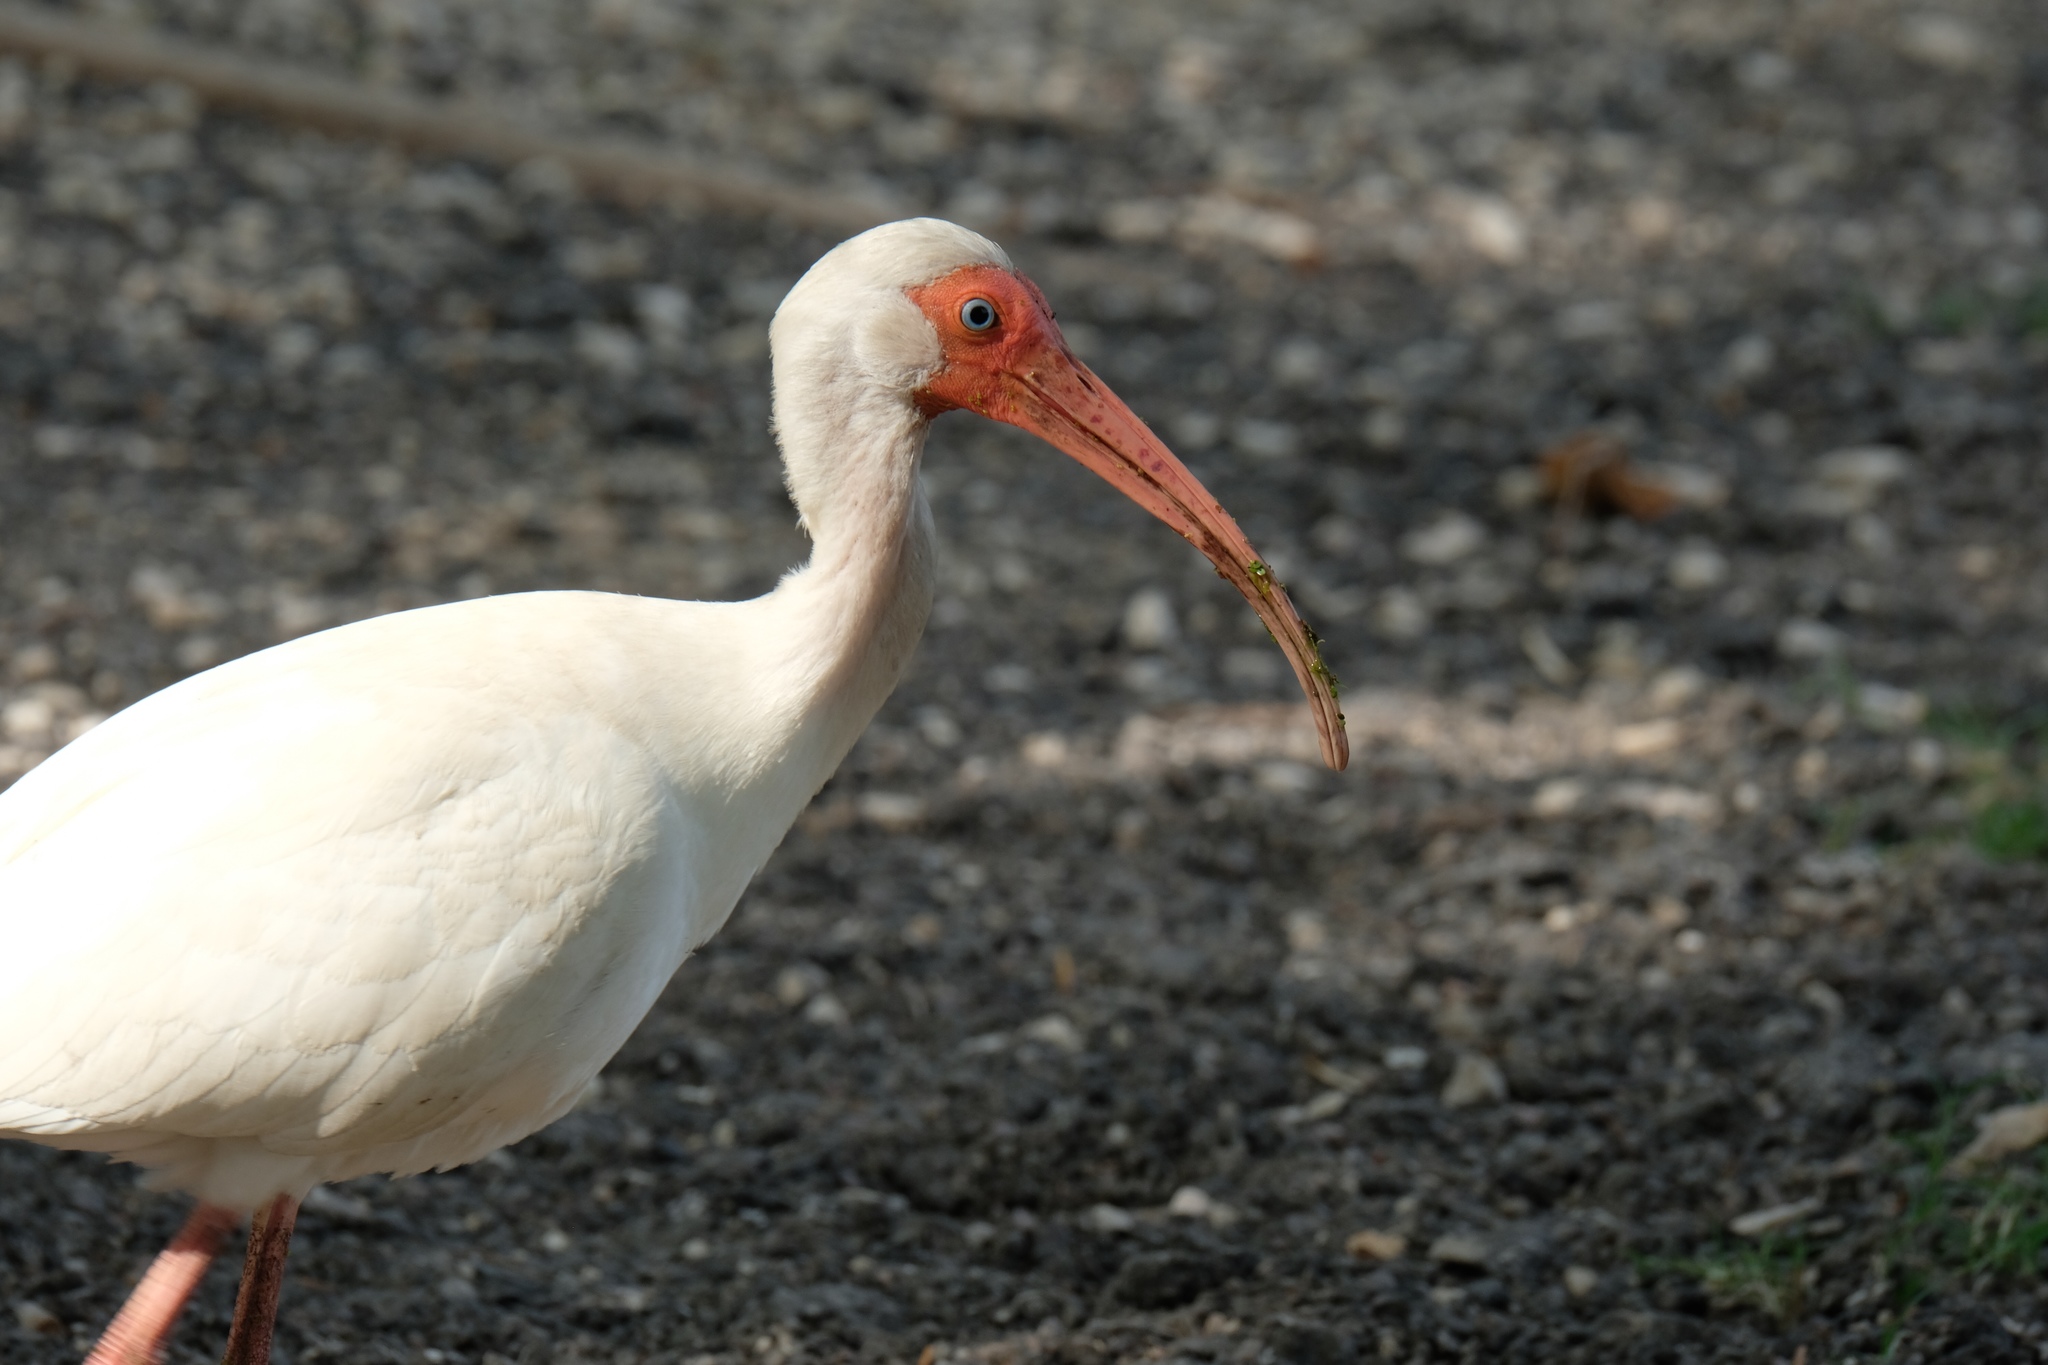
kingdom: Animalia
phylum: Chordata
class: Aves
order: Pelecaniformes
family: Threskiornithidae
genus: Eudocimus
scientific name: Eudocimus albus
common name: White ibis
